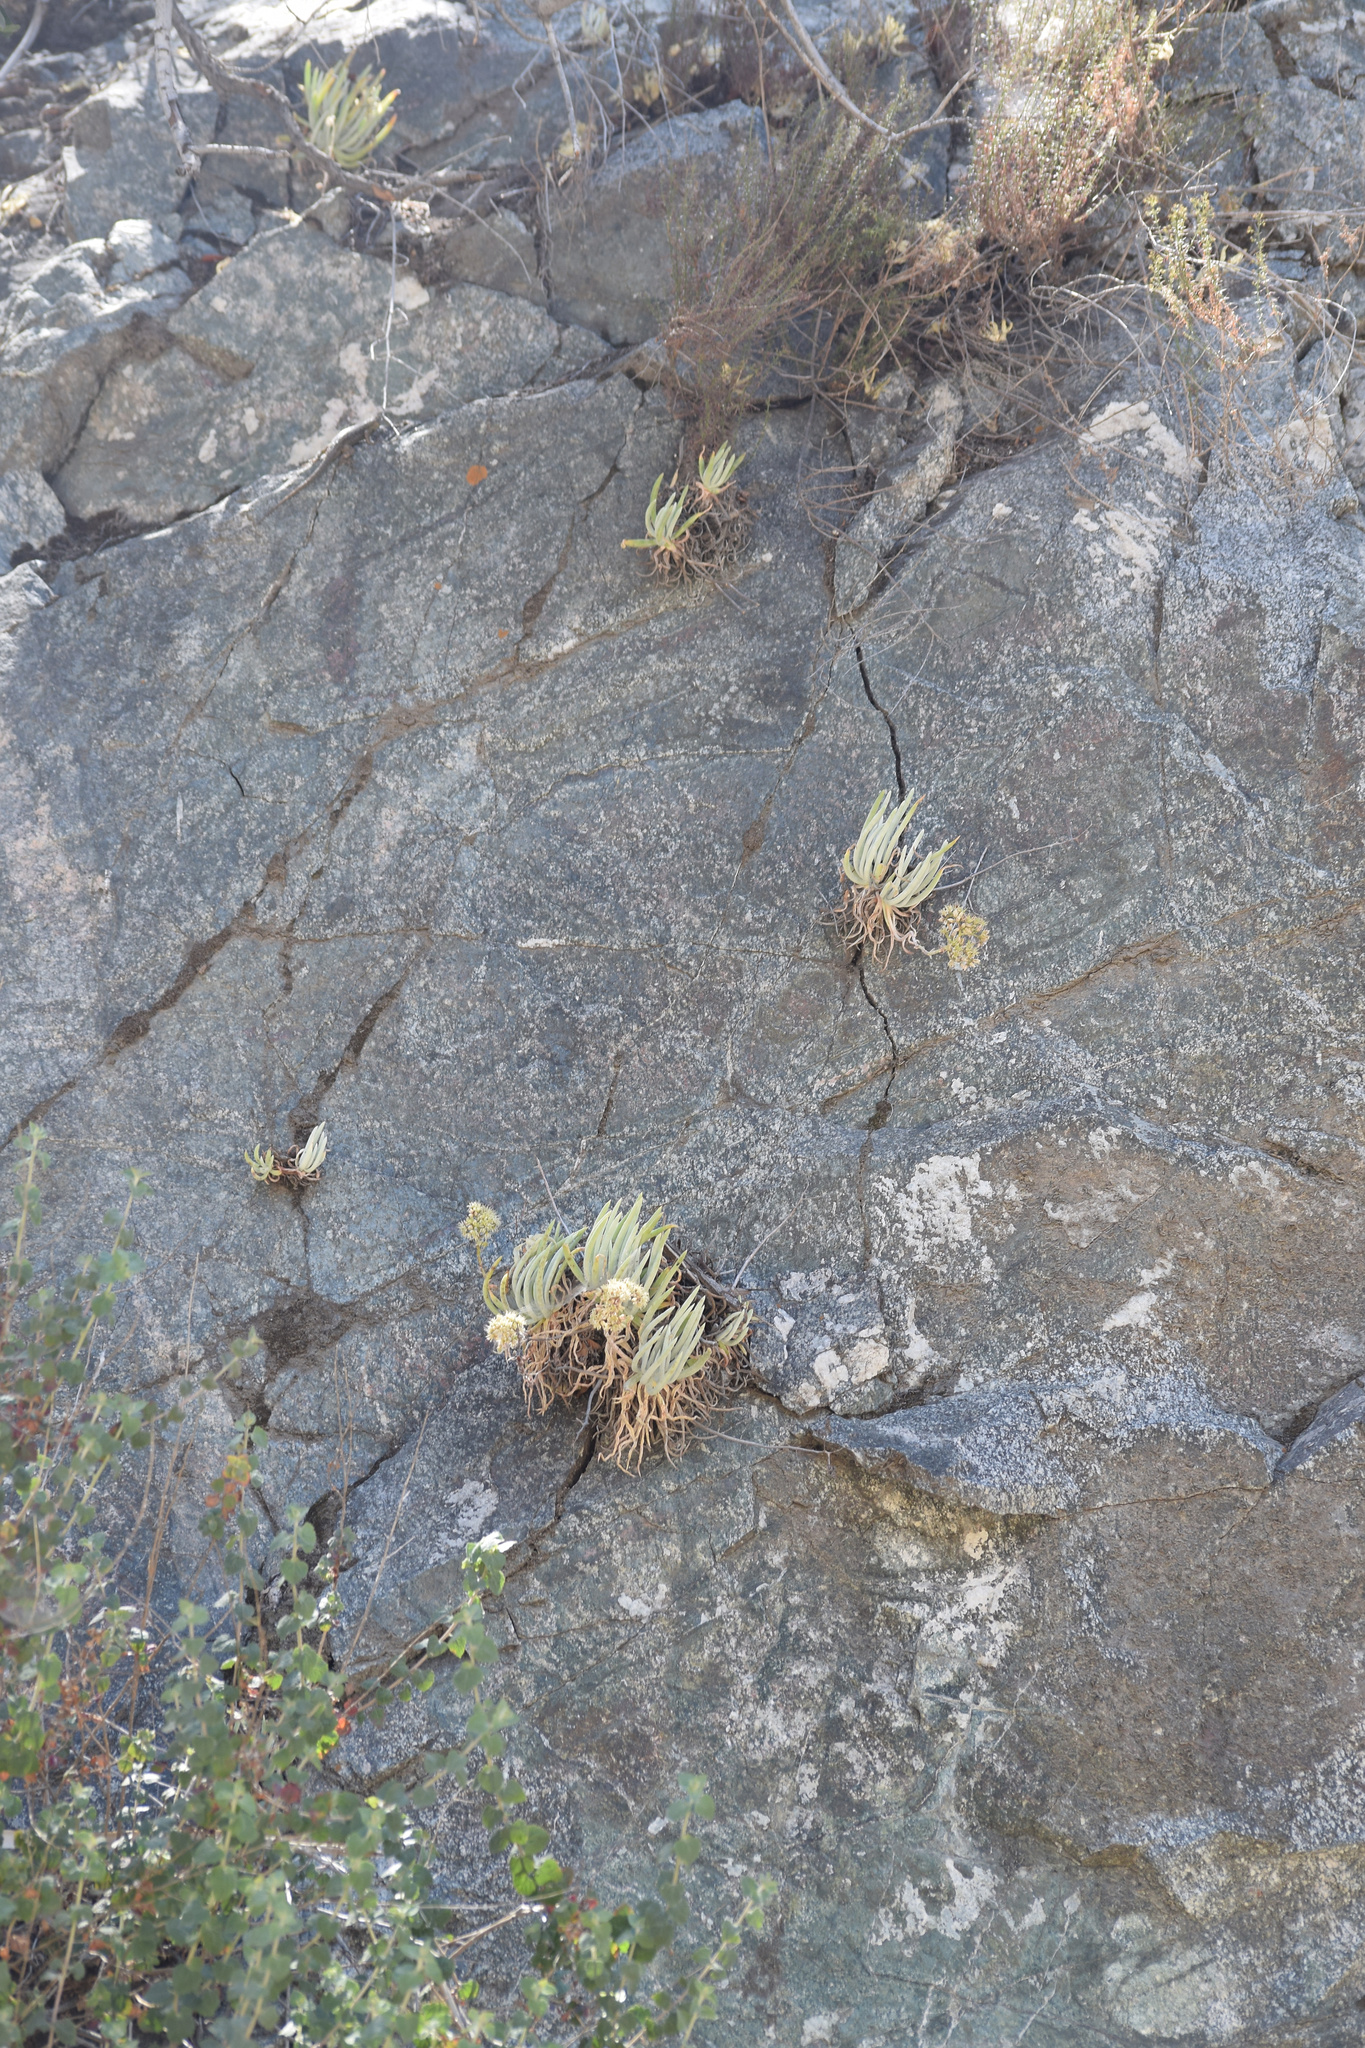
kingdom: Plantae
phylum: Tracheophyta
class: Magnoliopsida
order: Saxifragales
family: Crassulaceae
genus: Dudleya
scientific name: Dudleya densiflora
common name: San gabriel mountains dudleya
